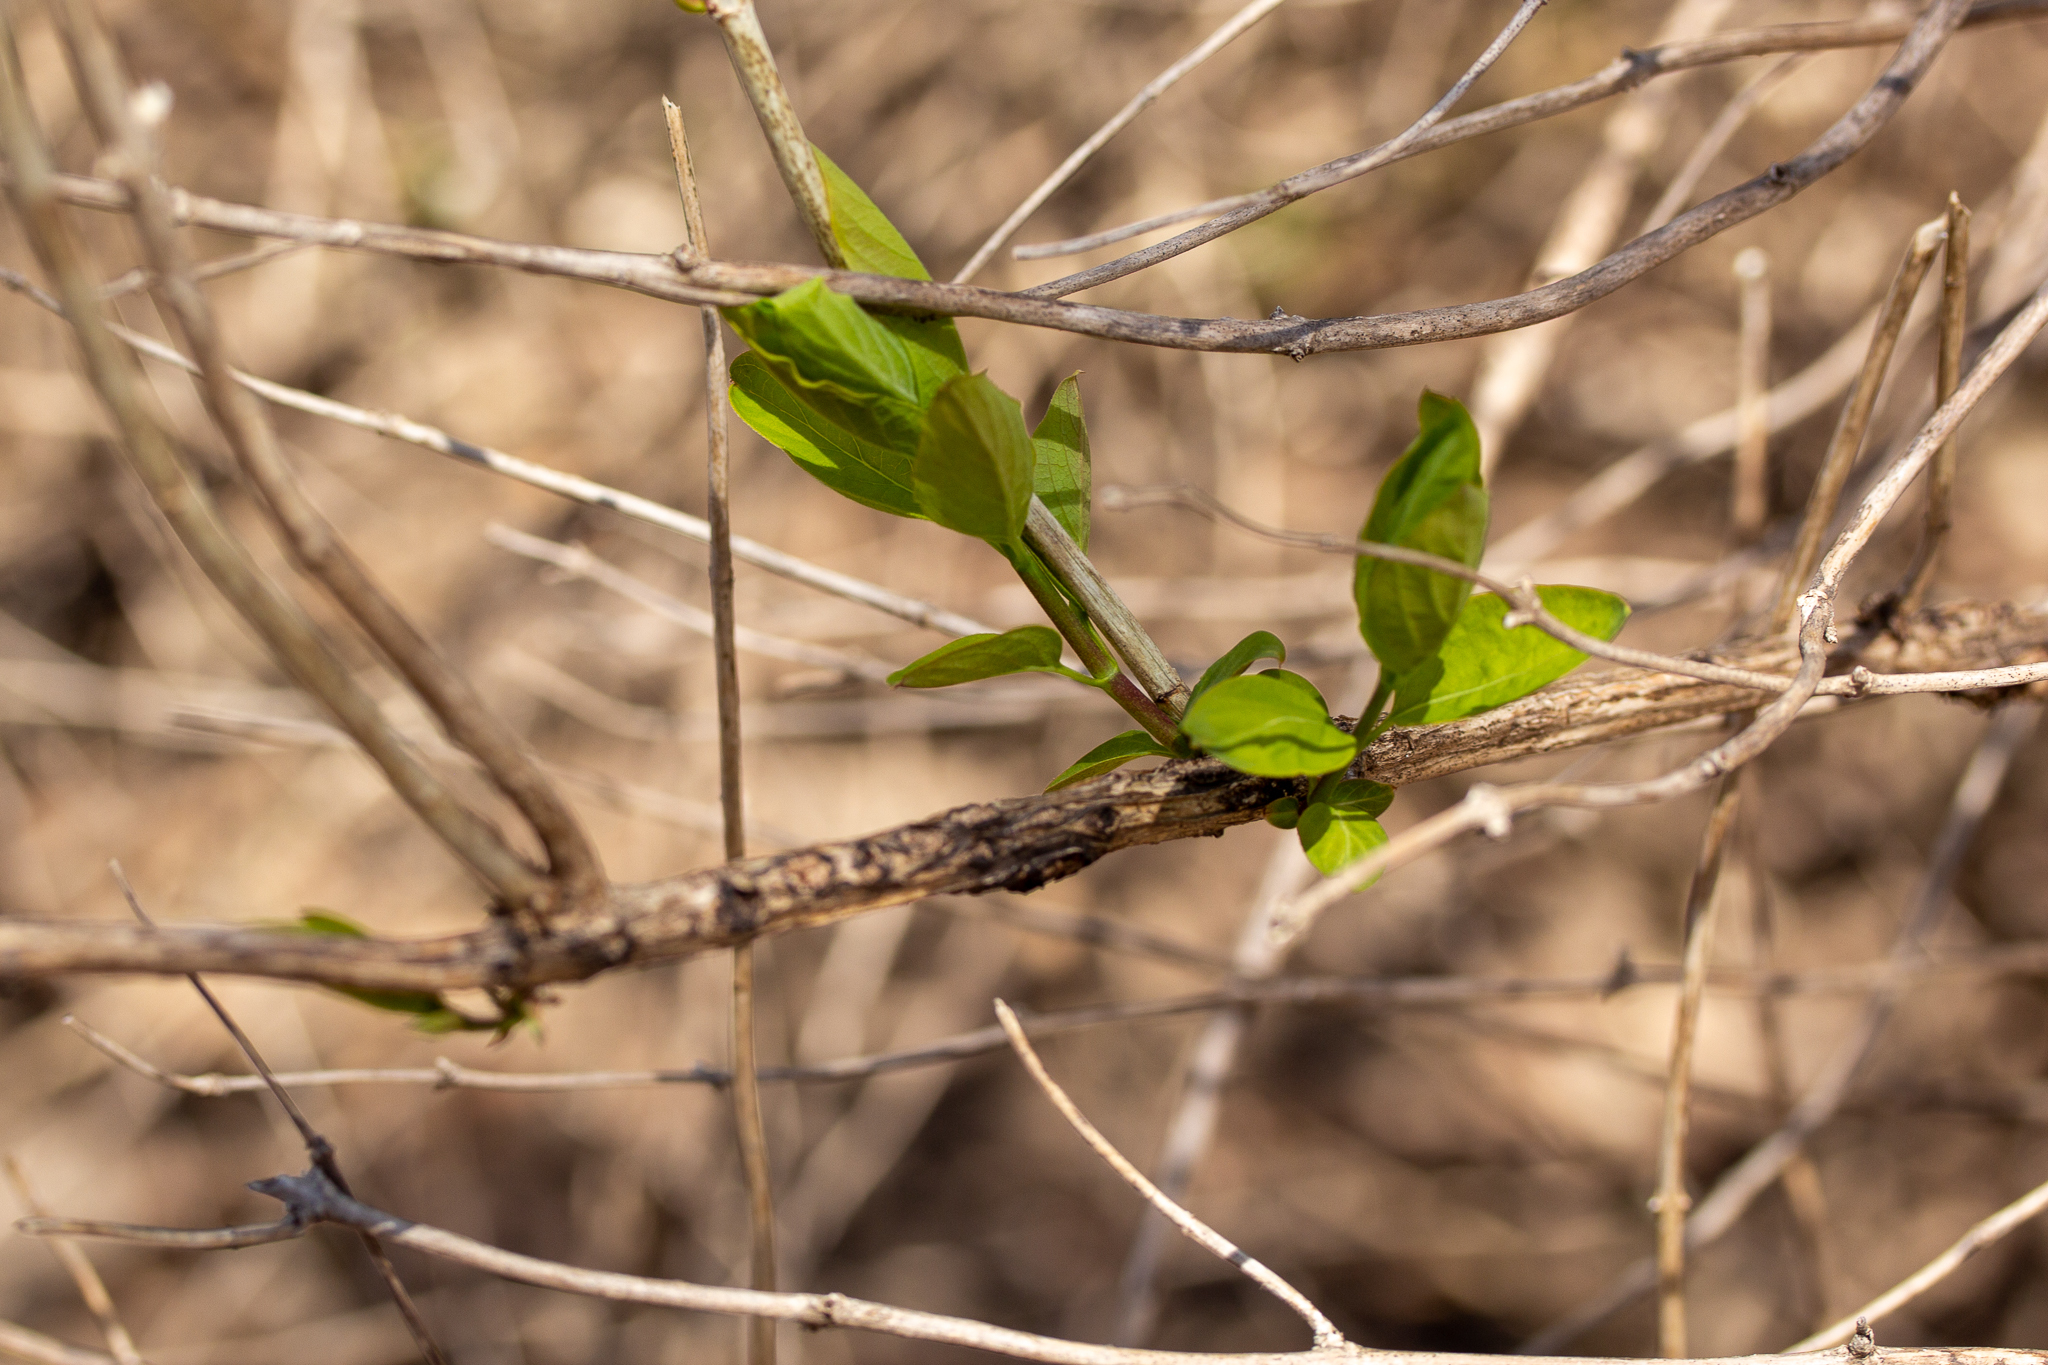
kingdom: Plantae
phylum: Tracheophyta
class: Magnoliopsida
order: Dipsacales
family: Caprifoliaceae
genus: Lonicera
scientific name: Lonicera tatarica
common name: Tatarian honeysuckle
